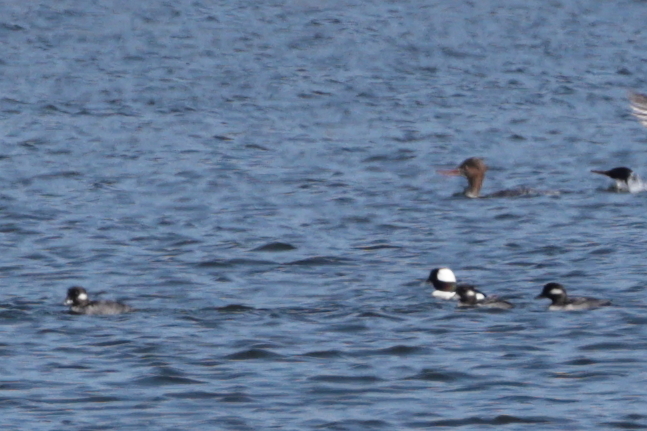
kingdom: Animalia
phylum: Chordata
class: Aves
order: Anseriformes
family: Anatidae
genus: Bucephala
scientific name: Bucephala albeola
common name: Bufflehead
